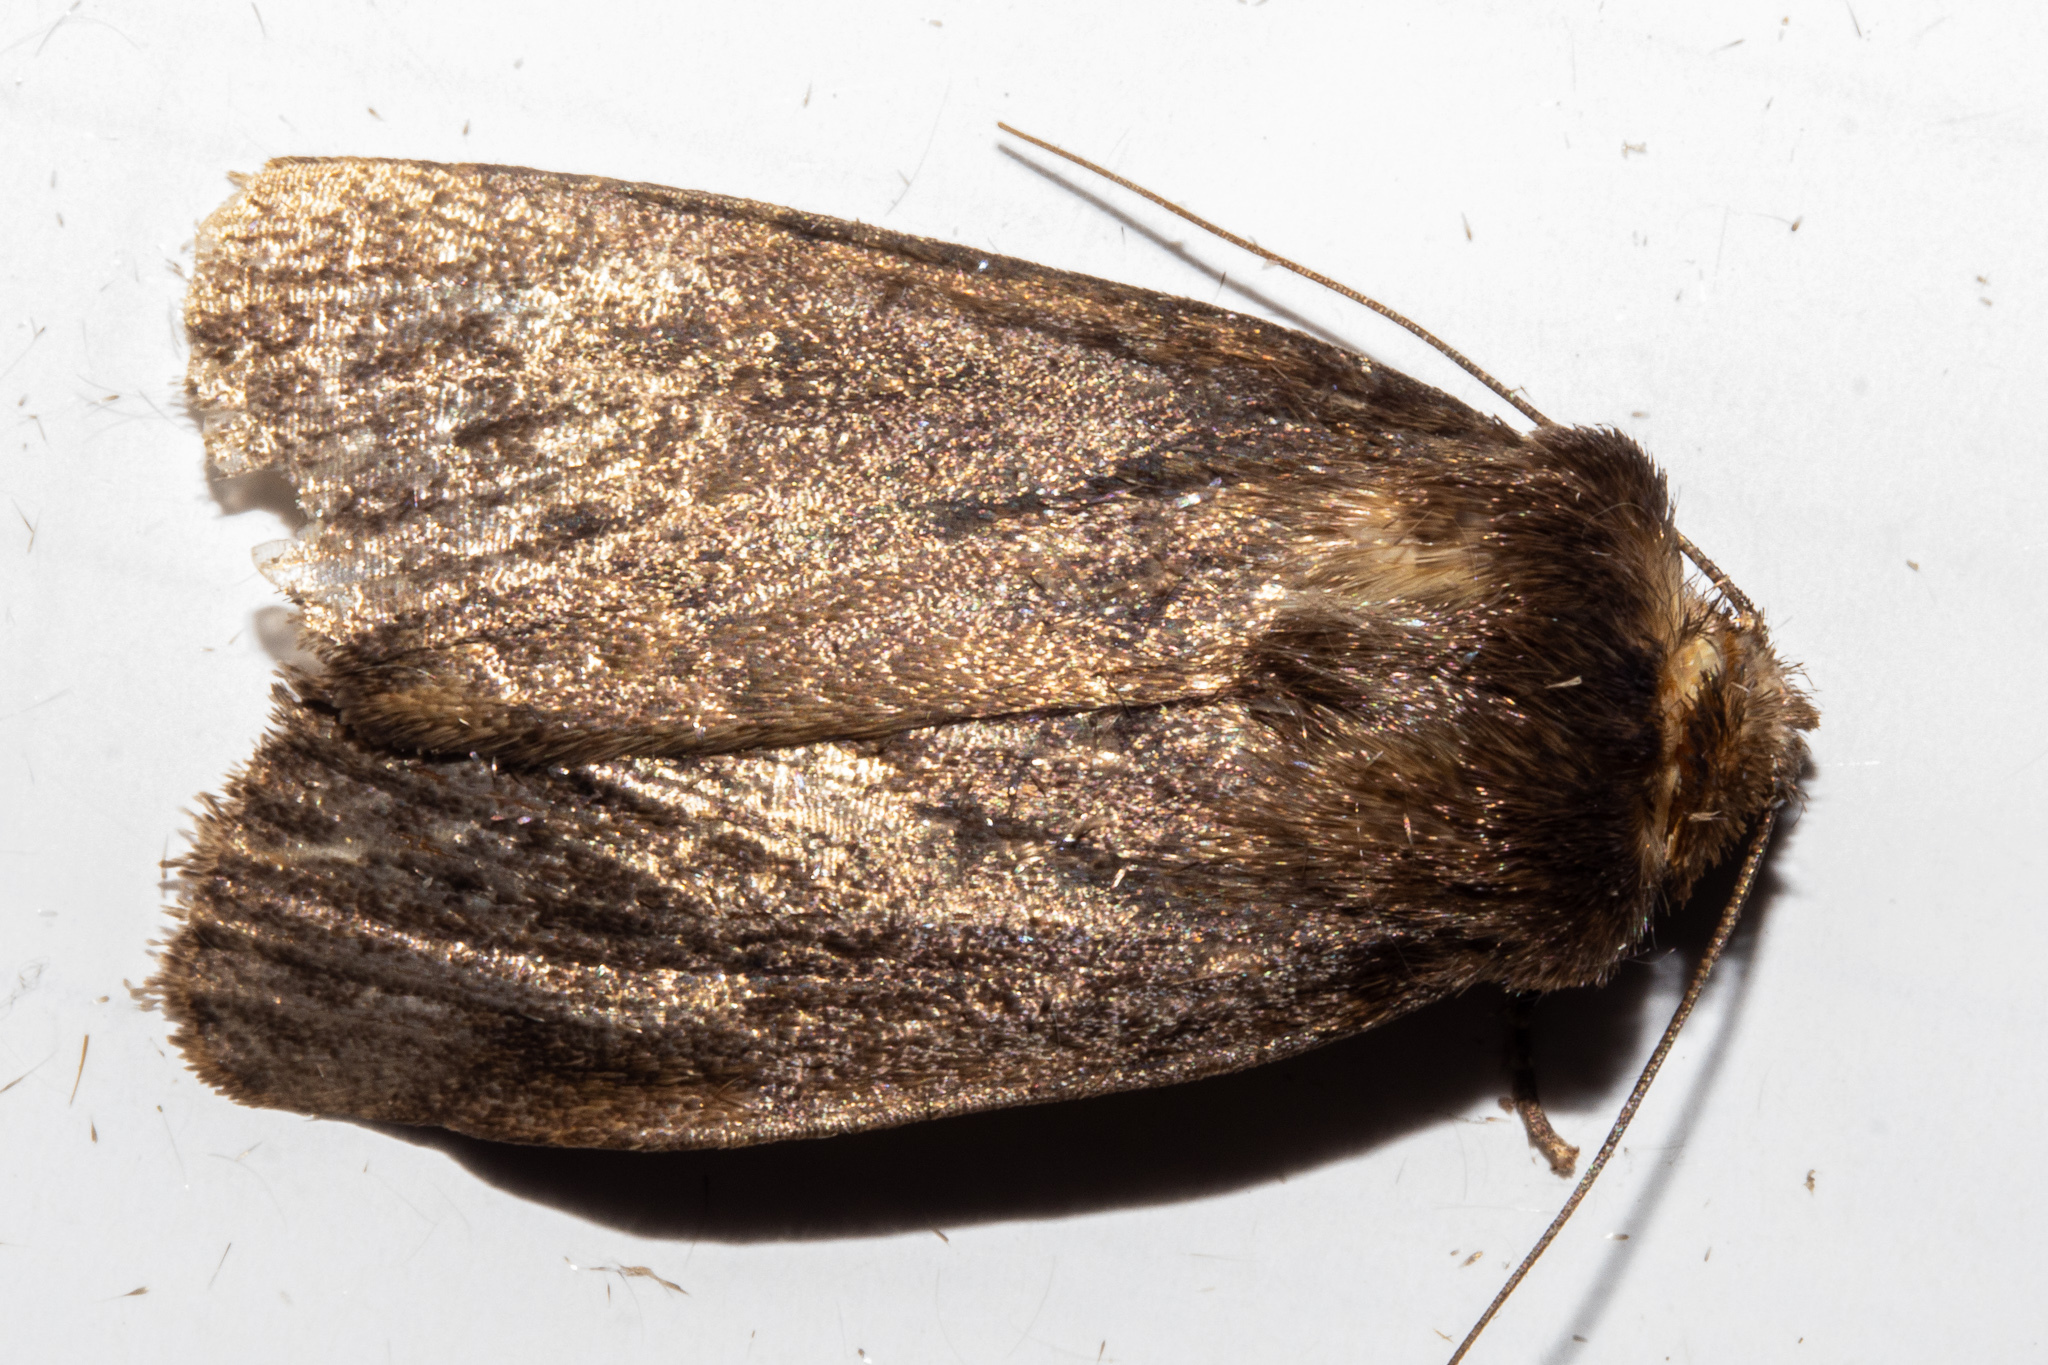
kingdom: Animalia
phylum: Arthropoda
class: Insecta
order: Lepidoptera
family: Noctuidae
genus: Bityla
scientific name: Bityla defigurata
